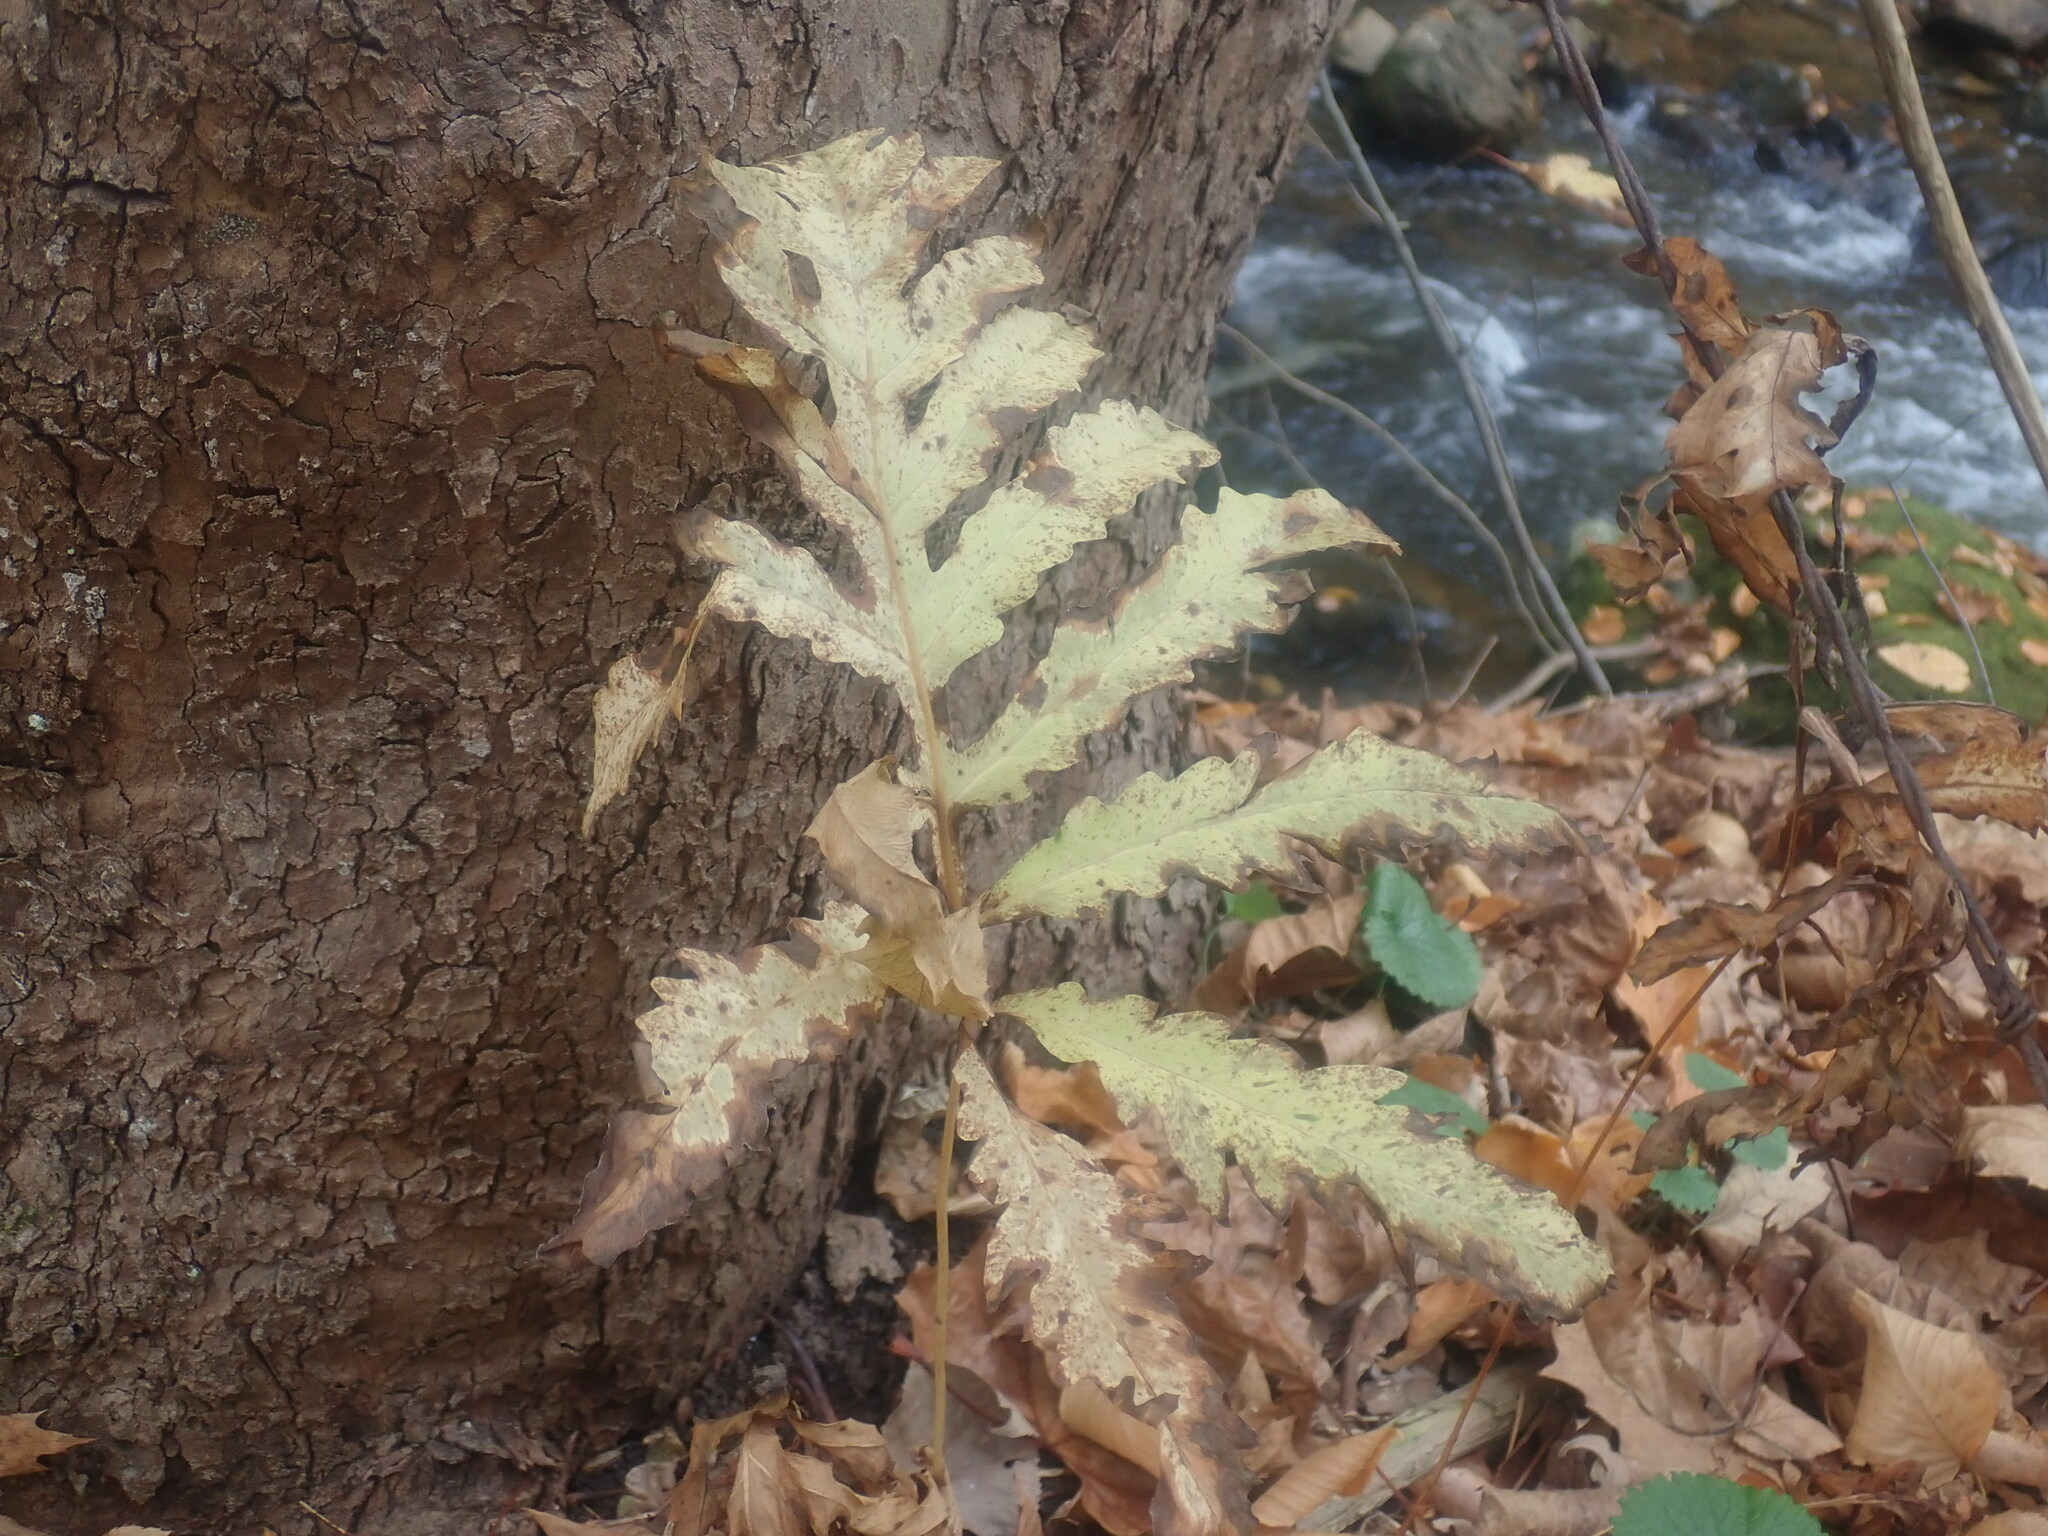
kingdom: Plantae
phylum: Tracheophyta
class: Polypodiopsida
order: Polypodiales
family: Onocleaceae
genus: Onoclea
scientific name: Onoclea sensibilis
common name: Sensitive fern
